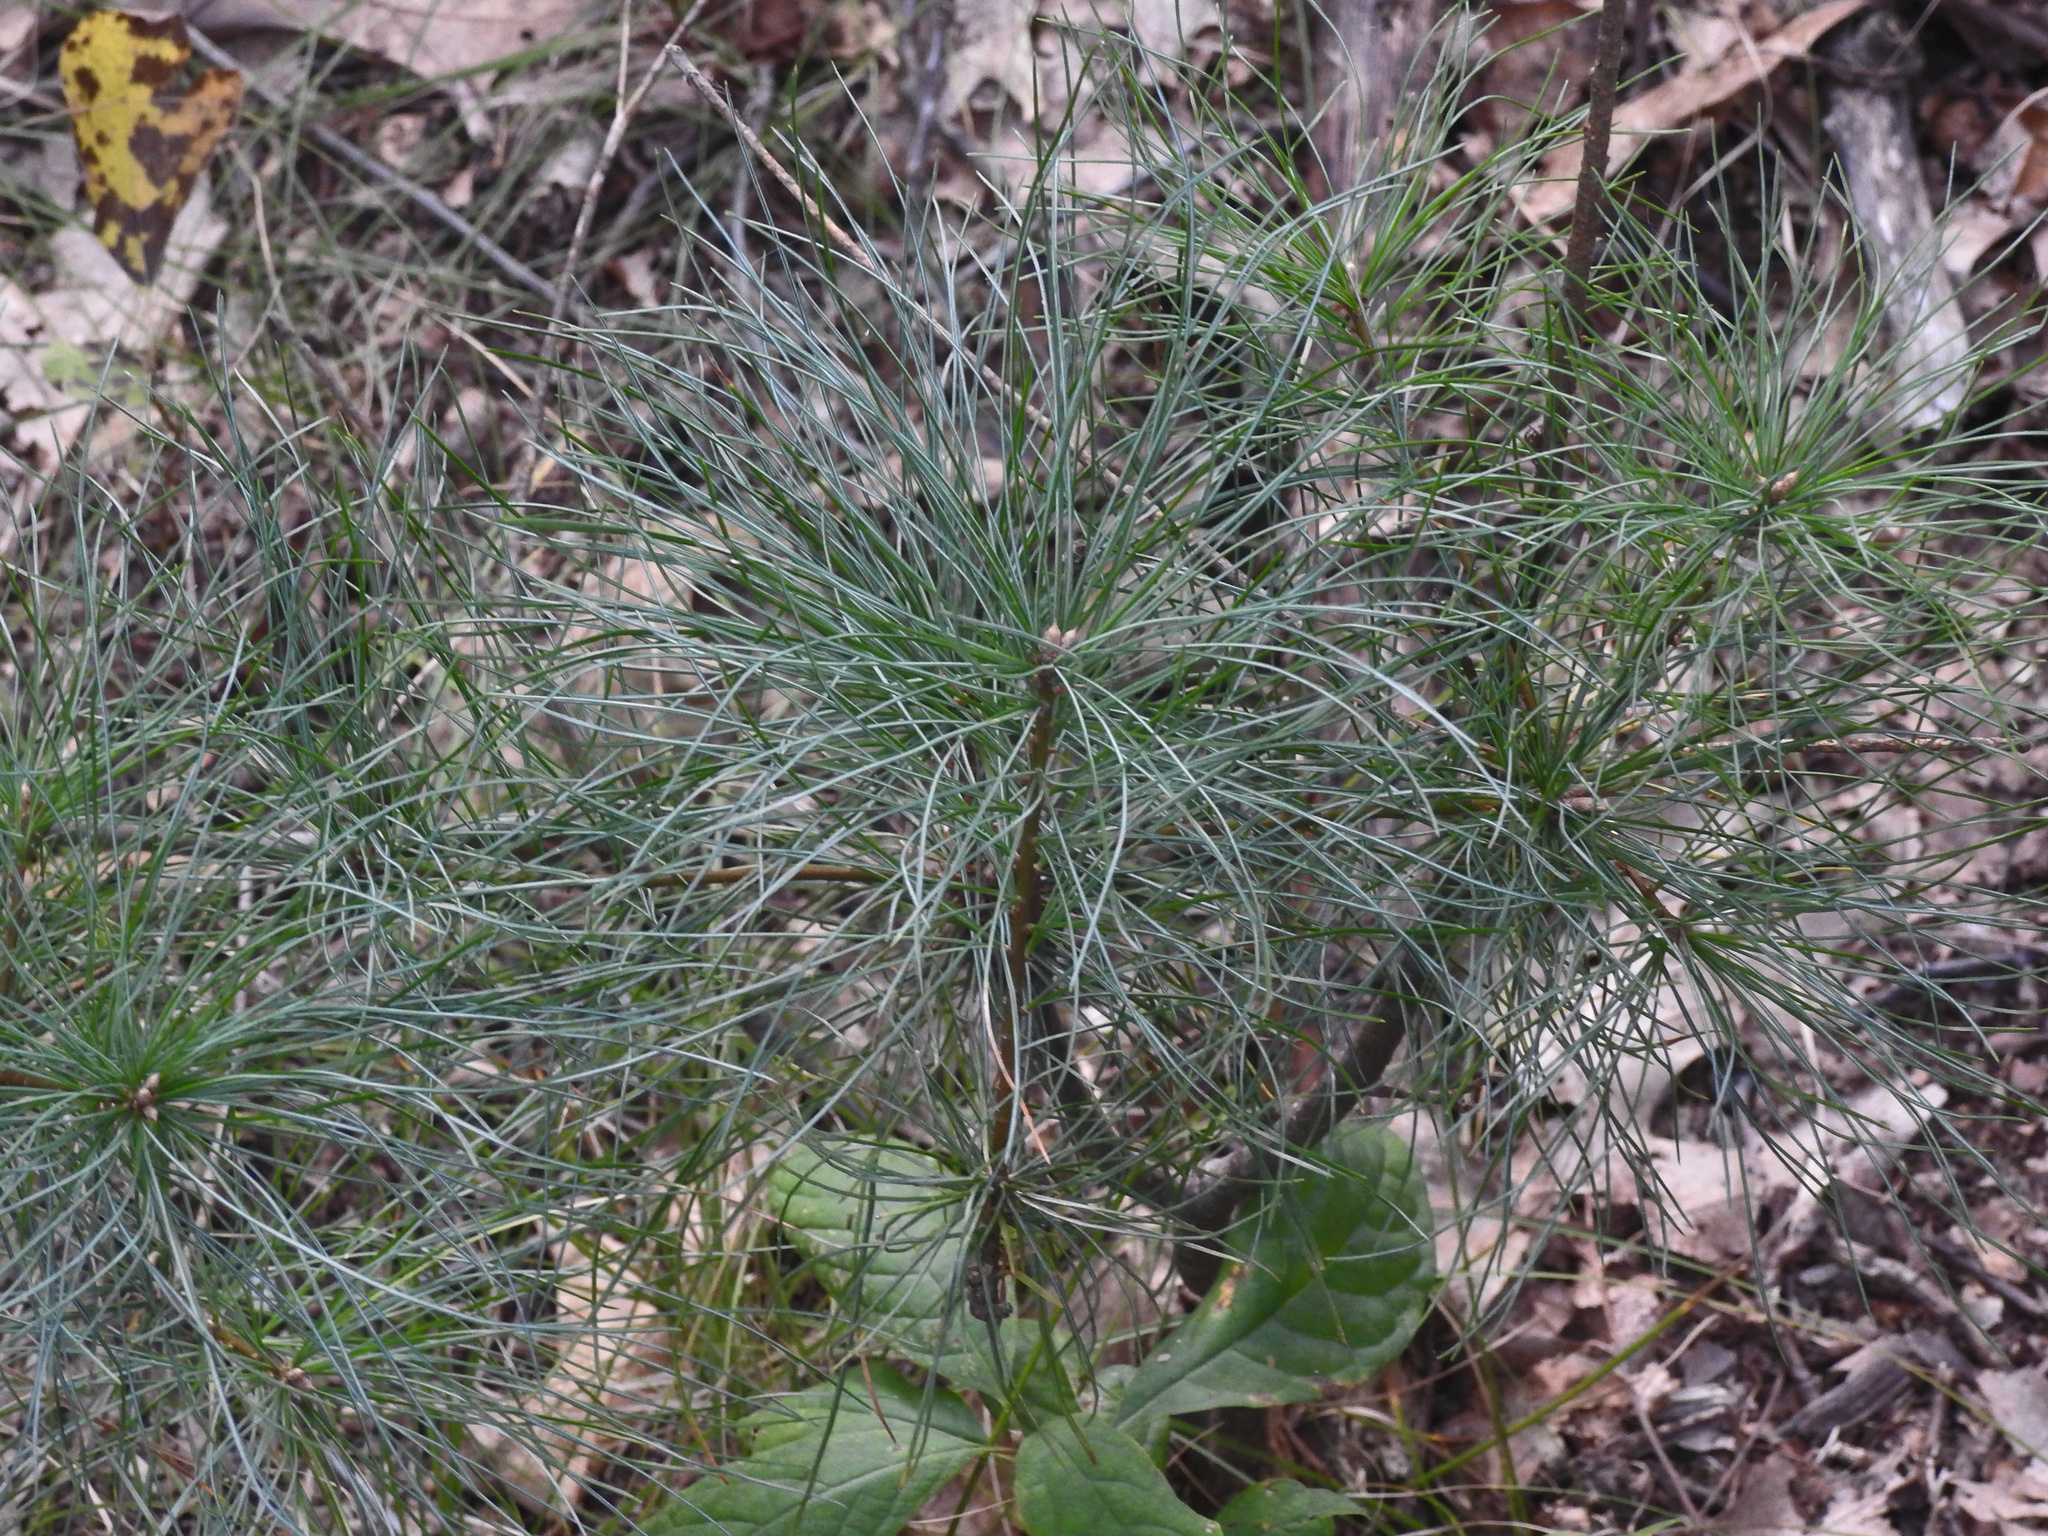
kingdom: Plantae
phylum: Tracheophyta
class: Pinopsida
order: Pinales
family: Pinaceae
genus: Pinus
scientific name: Pinus strobus
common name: Weymouth pine
